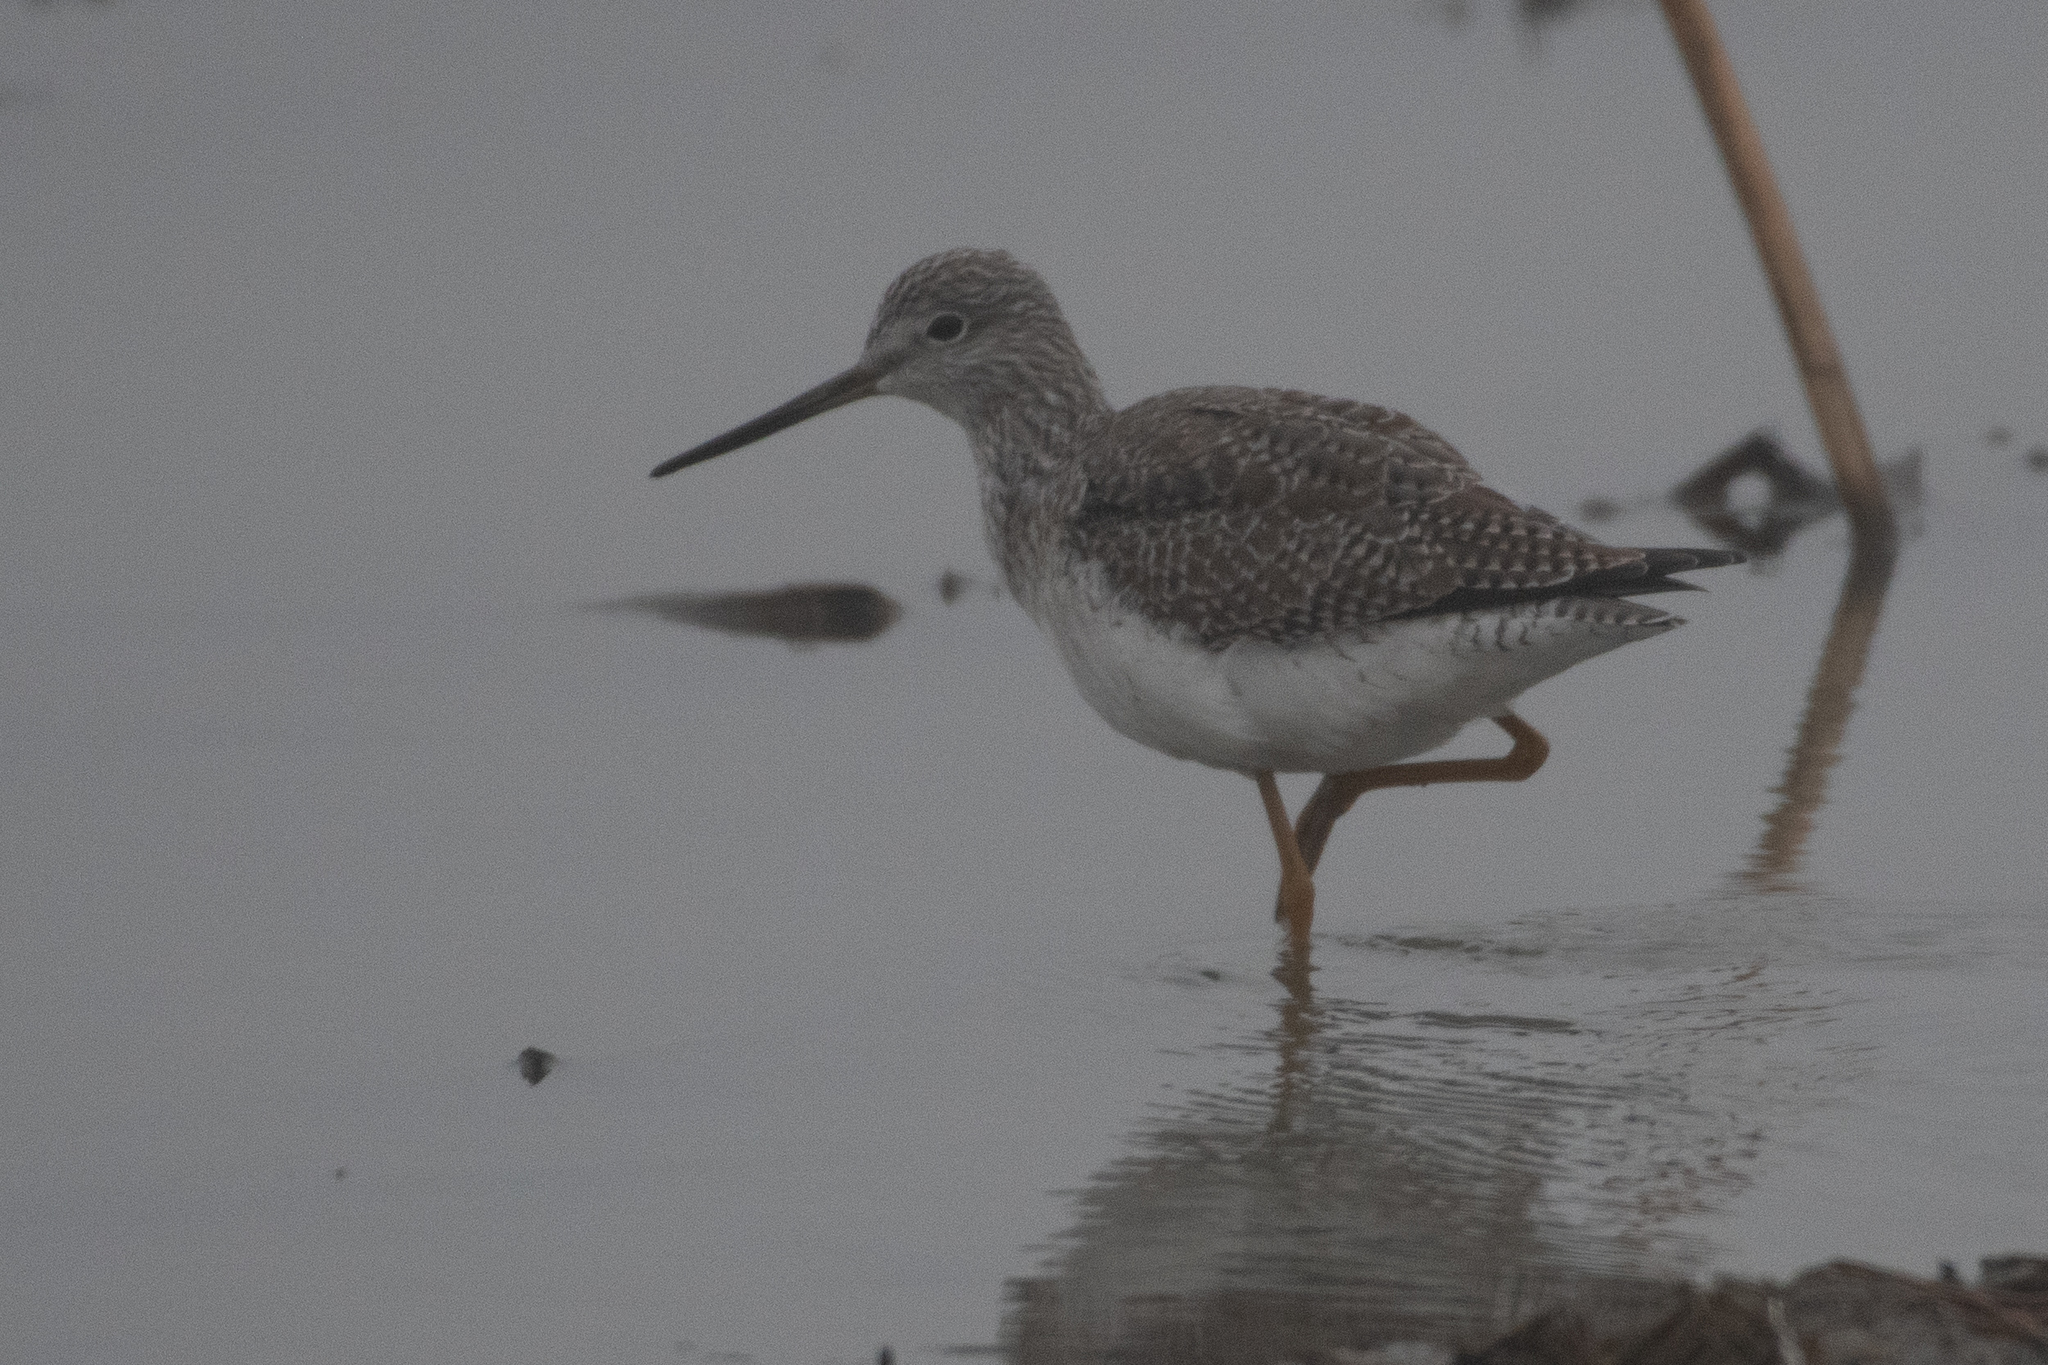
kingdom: Animalia
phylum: Chordata
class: Aves
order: Charadriiformes
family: Scolopacidae
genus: Tringa
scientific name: Tringa melanoleuca
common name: Greater yellowlegs
